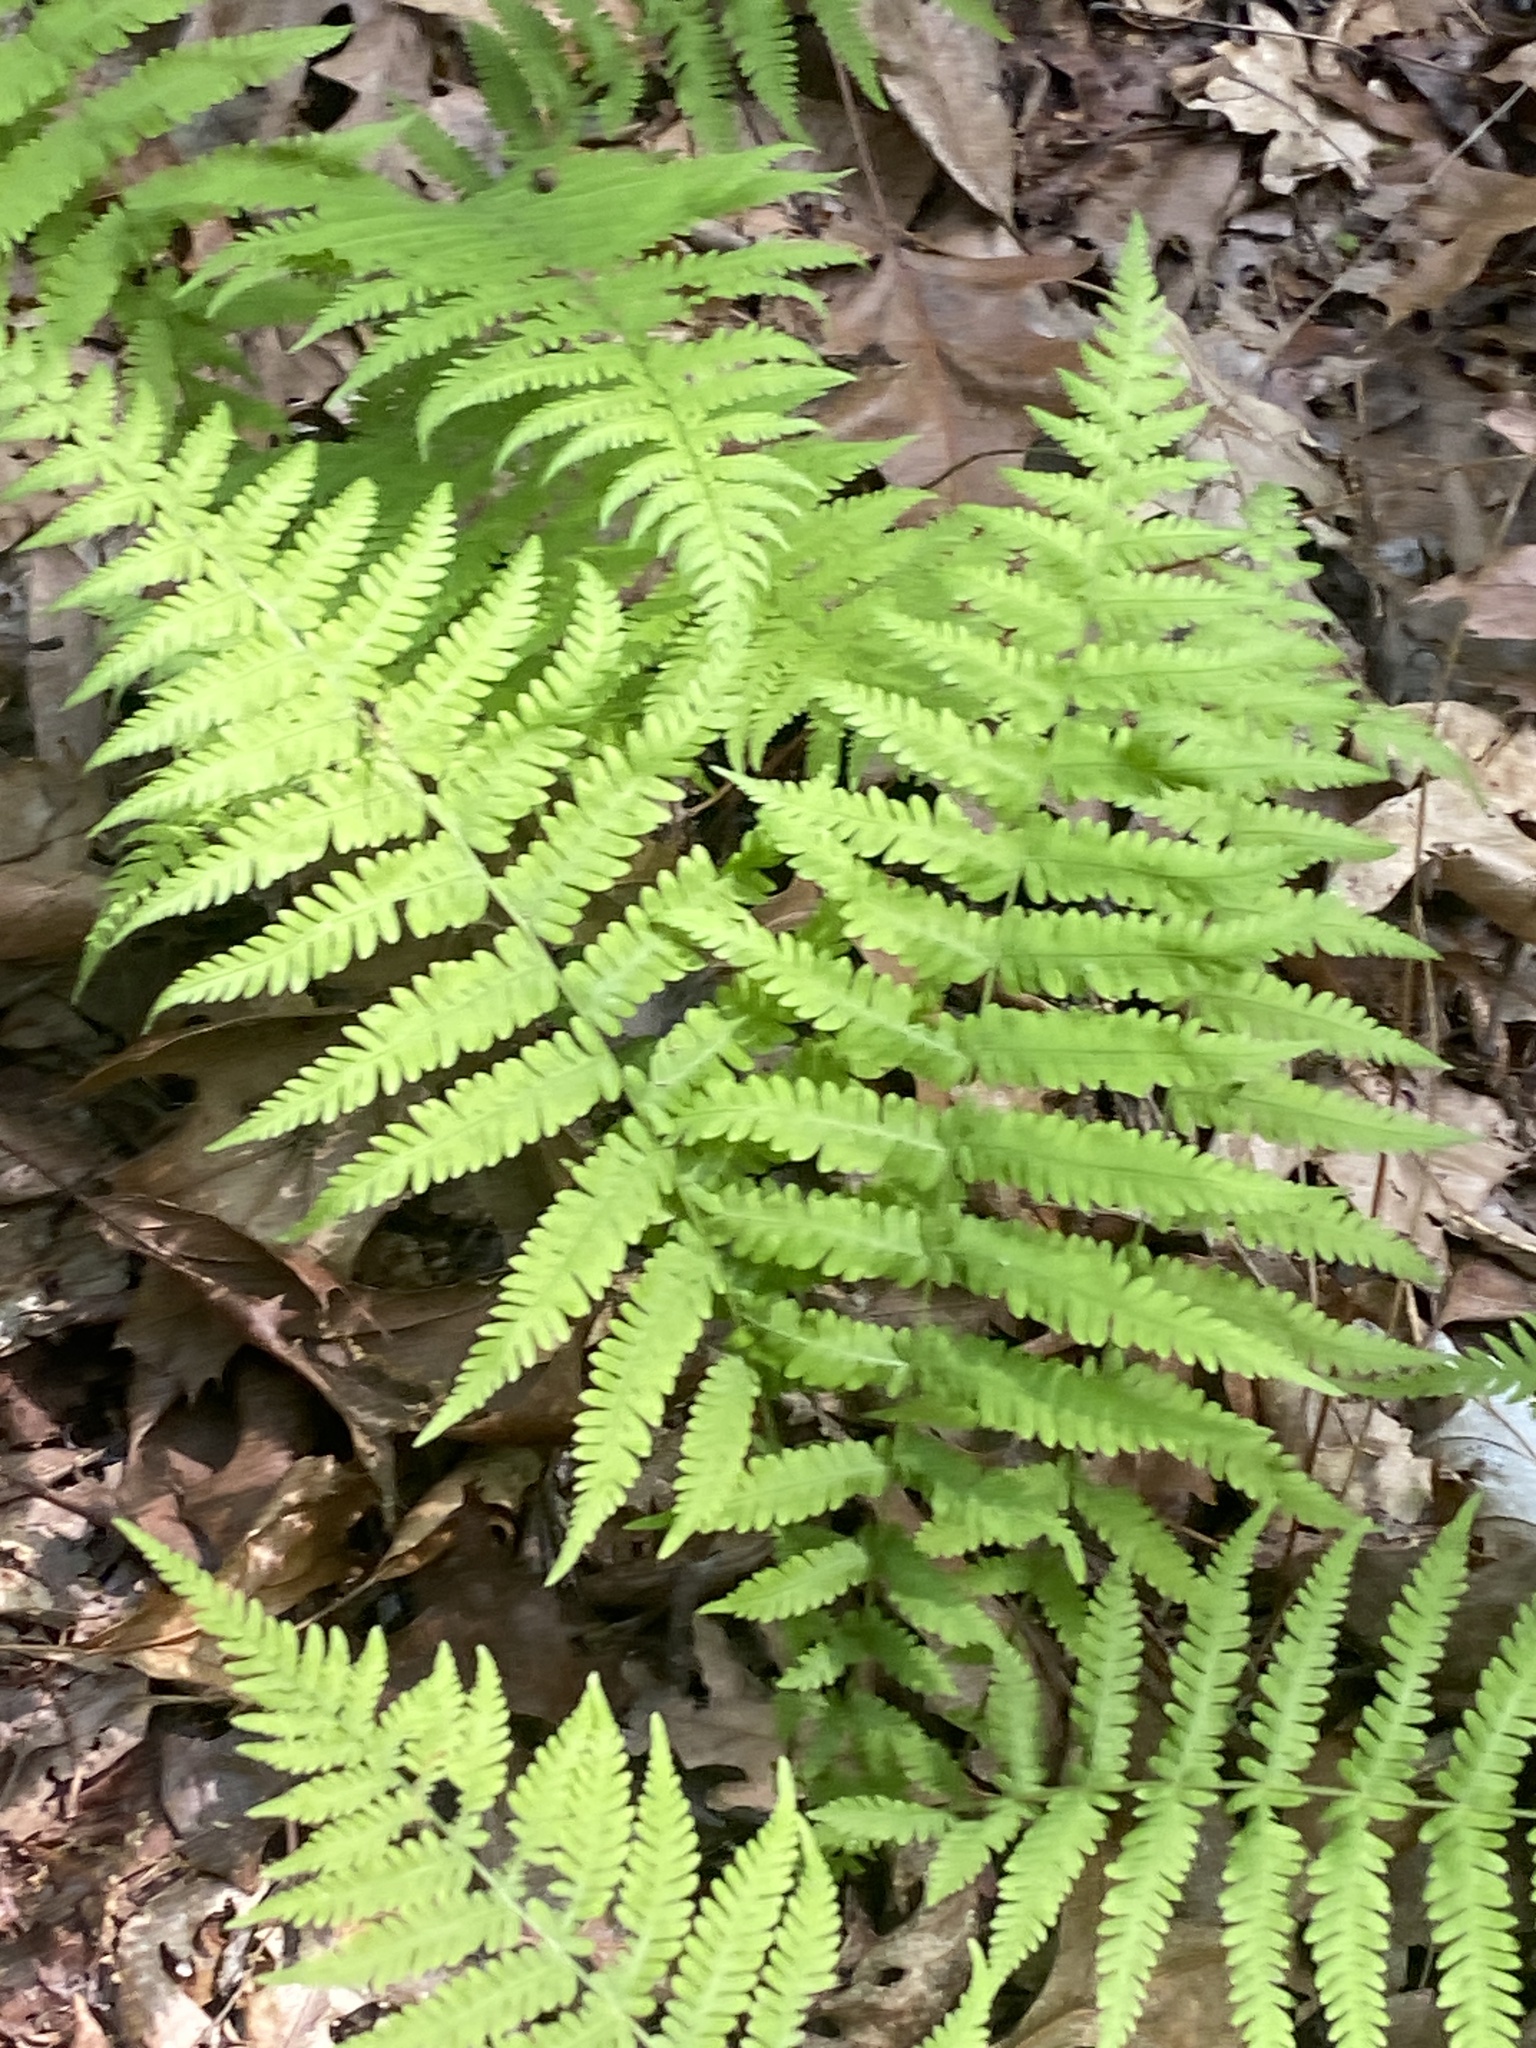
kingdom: Plantae
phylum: Tracheophyta
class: Polypodiopsida
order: Polypodiales
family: Thelypteridaceae
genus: Amauropelta
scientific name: Amauropelta noveboracensis
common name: New york fern
